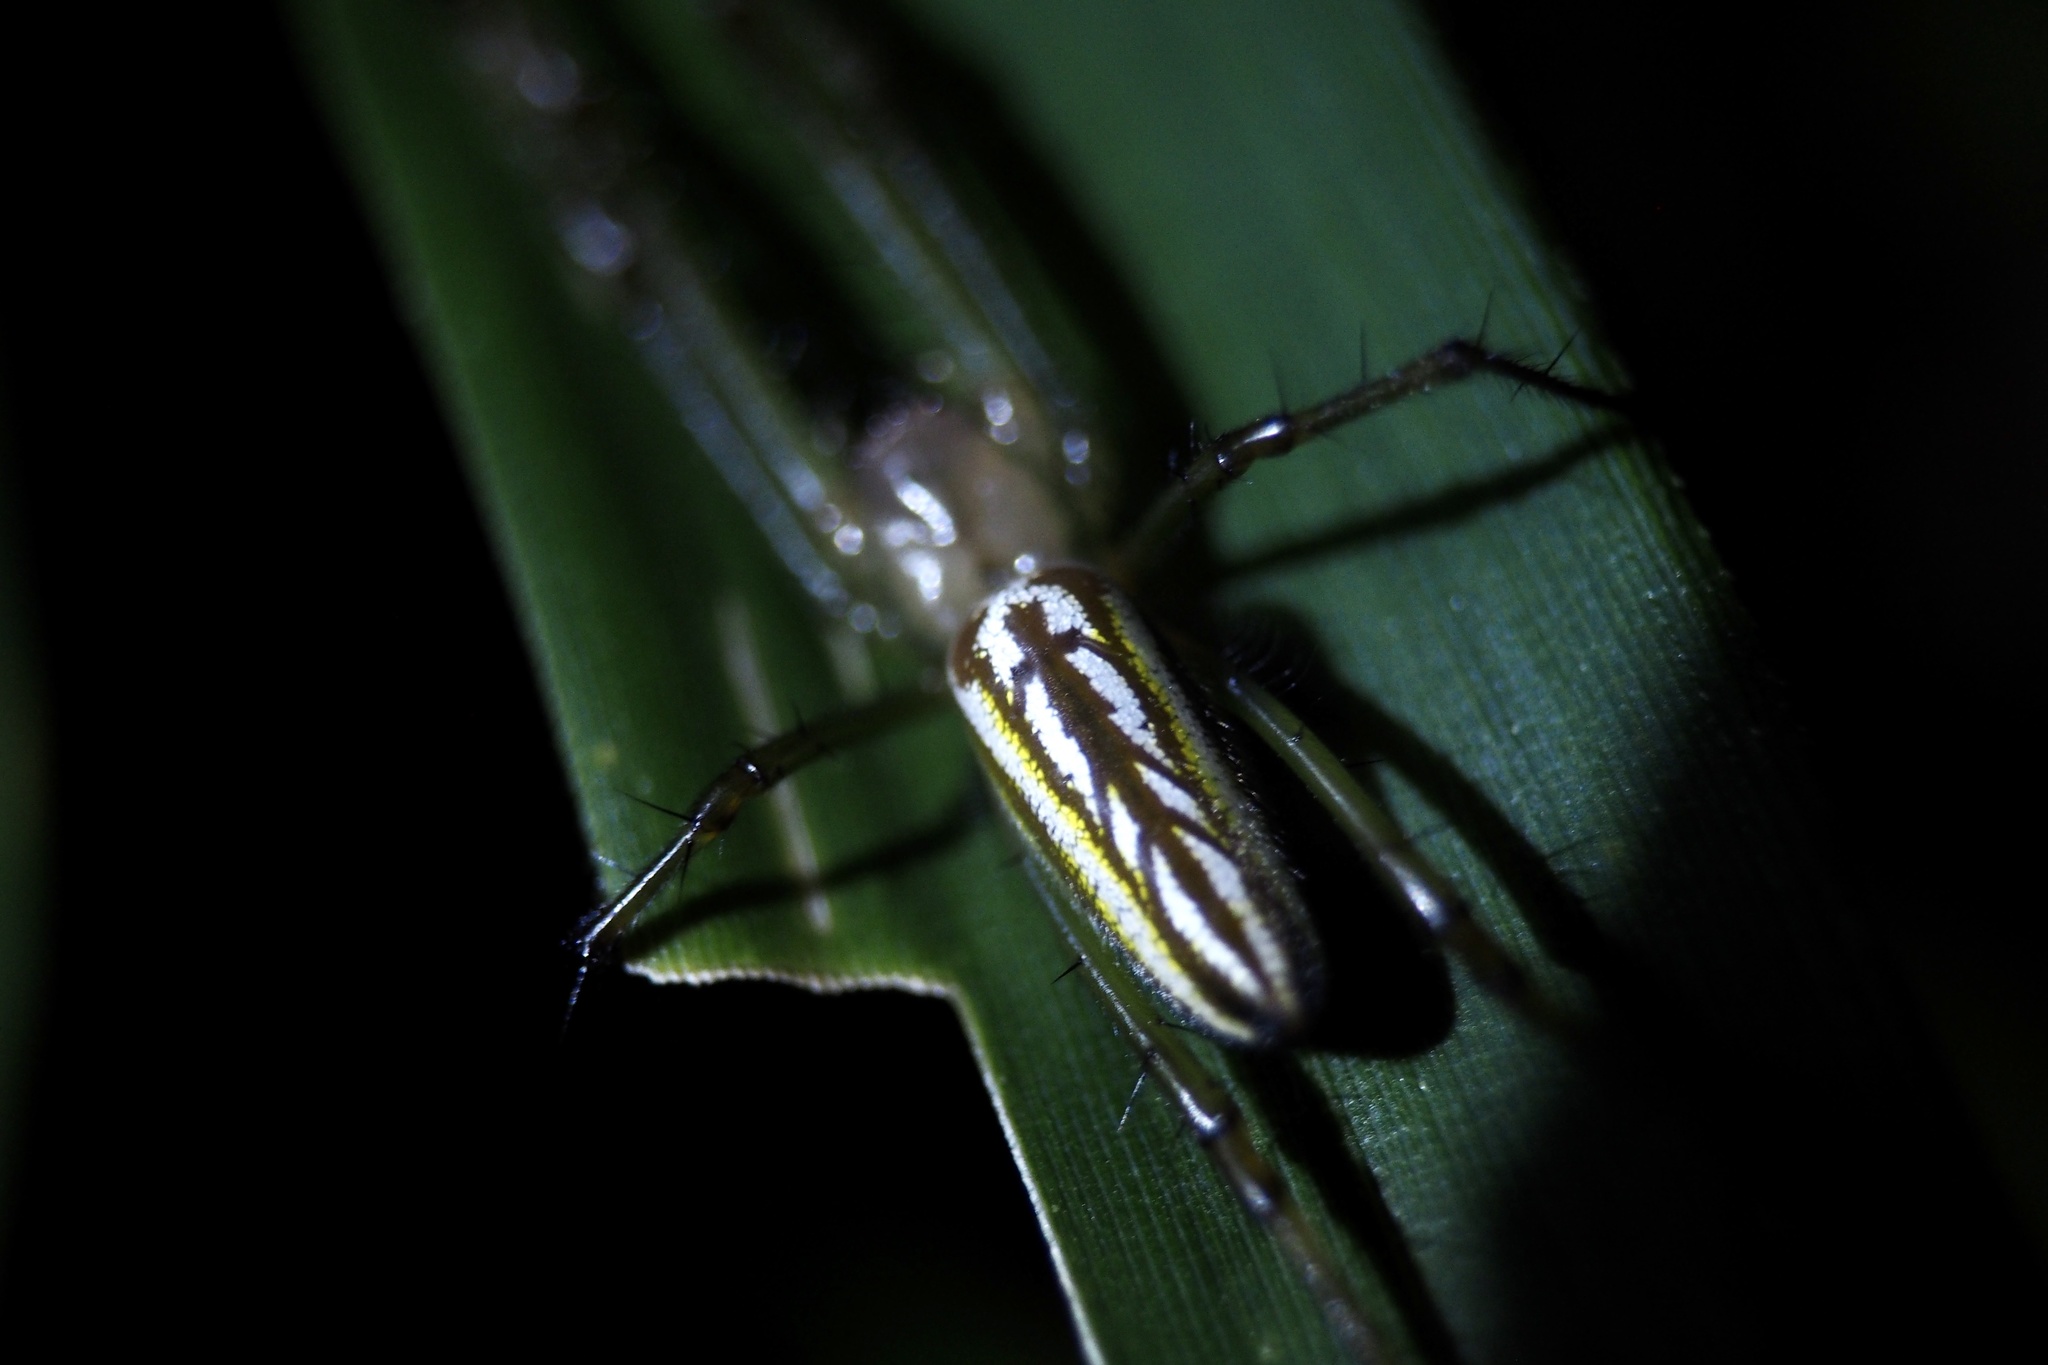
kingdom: Animalia
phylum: Arthropoda
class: Arachnida
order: Araneae
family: Tetragnathidae
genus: Leucauge
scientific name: Leucauge subblanda
